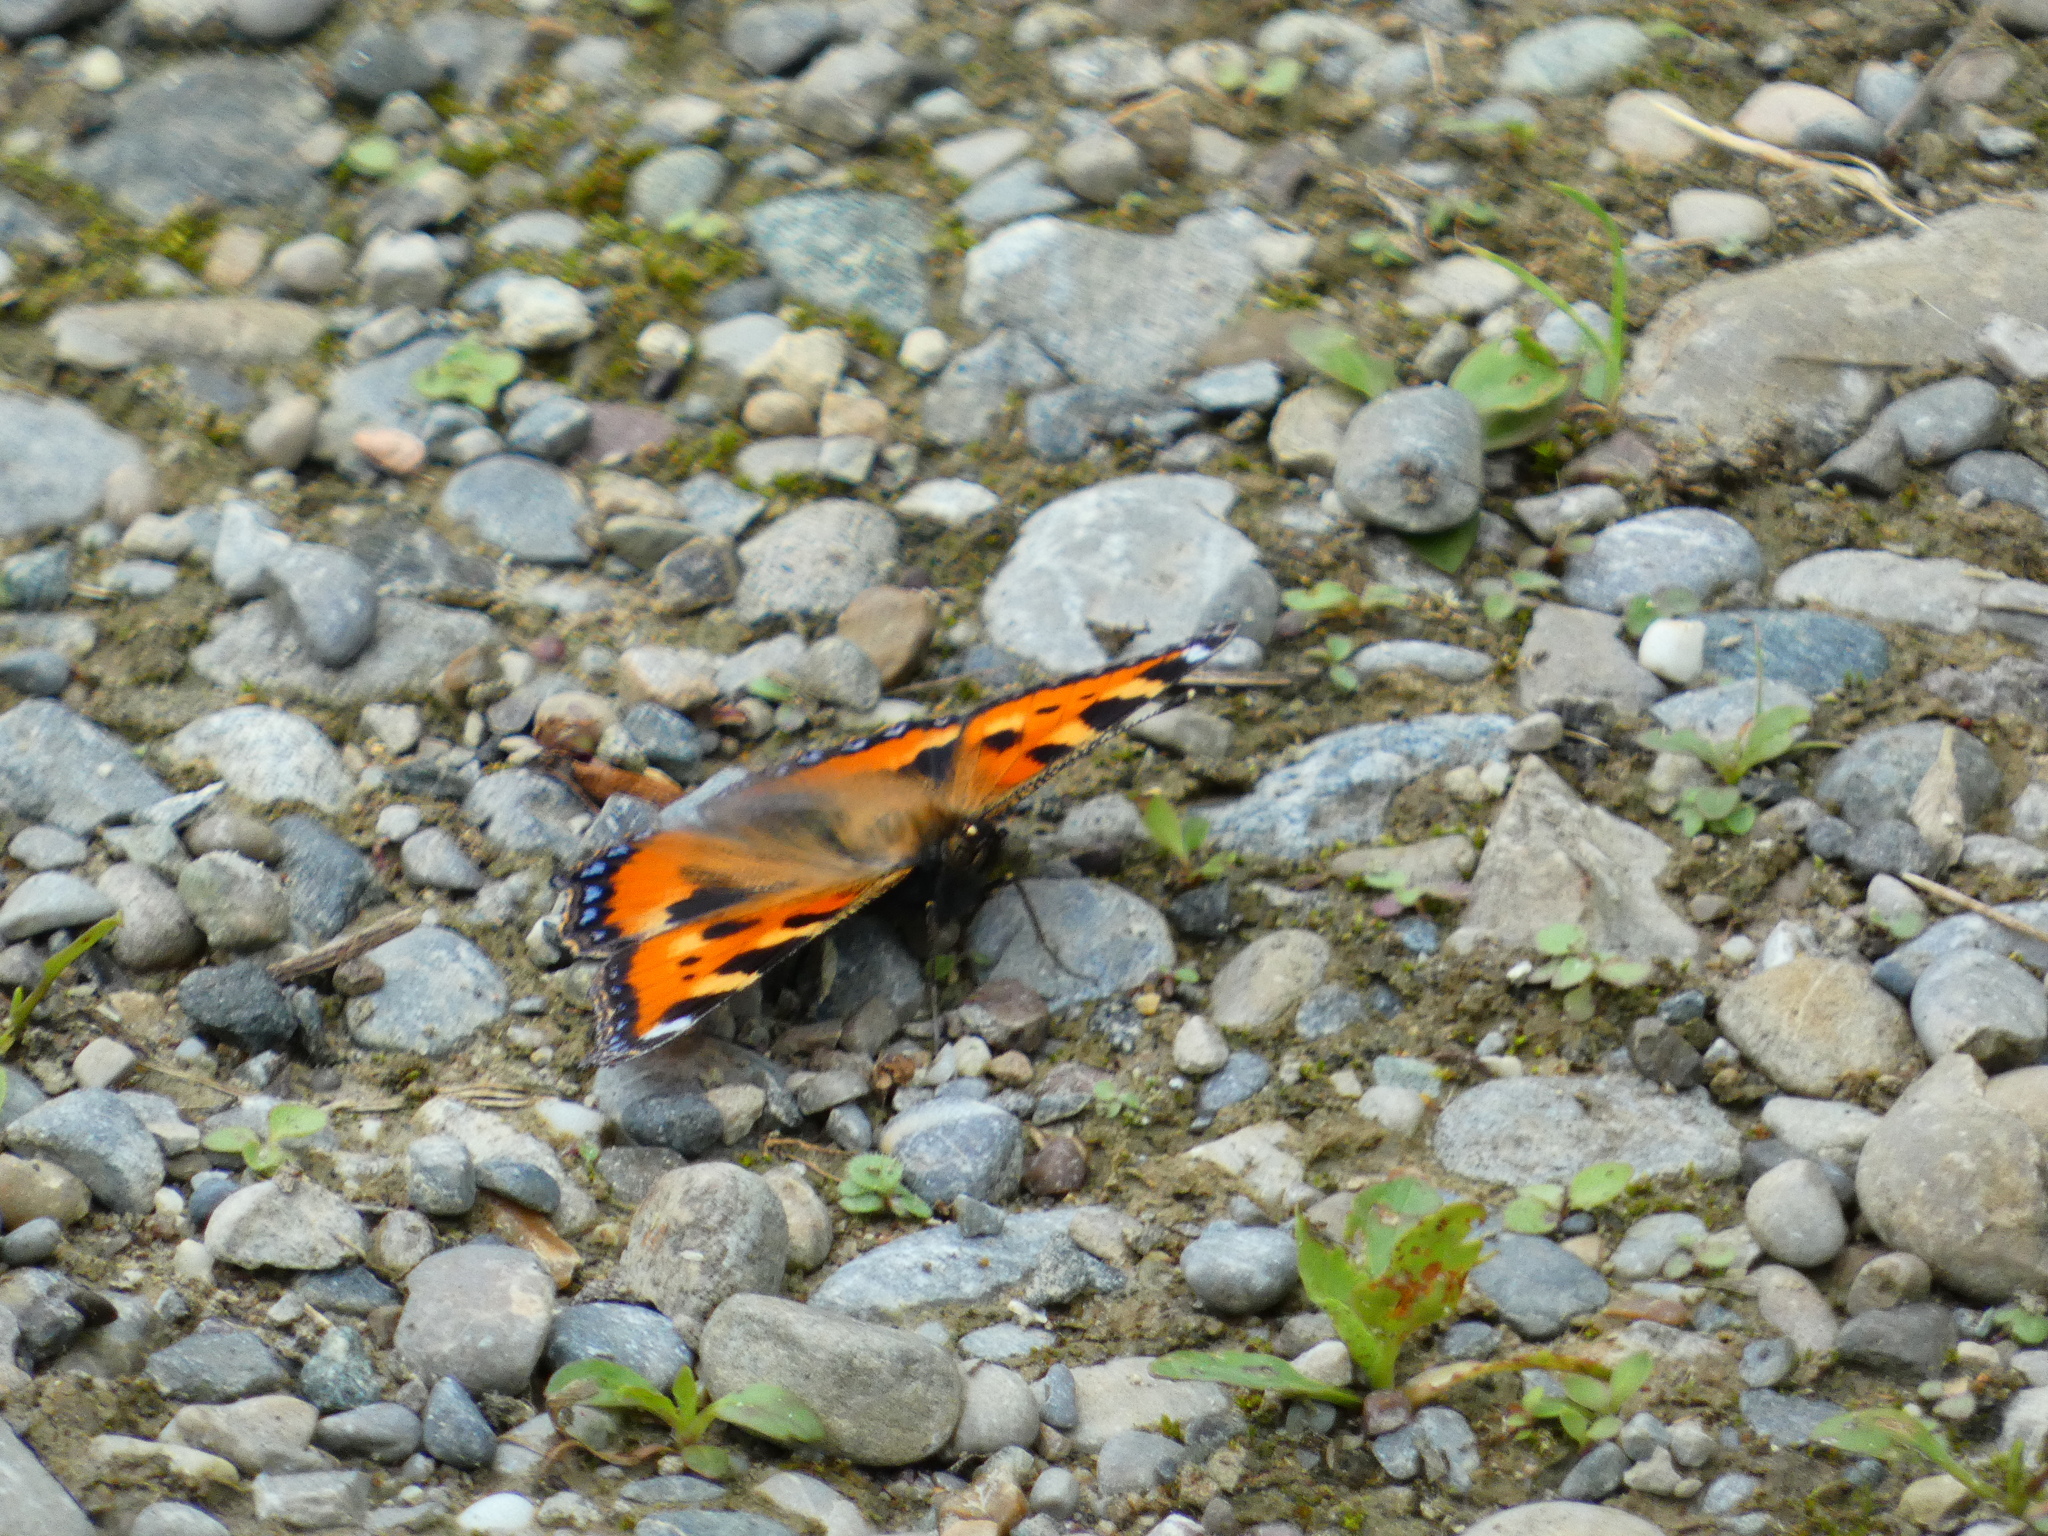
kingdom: Animalia
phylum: Arthropoda
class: Insecta
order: Lepidoptera
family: Nymphalidae
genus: Aglais
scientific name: Aglais urticae
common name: Small tortoiseshell
